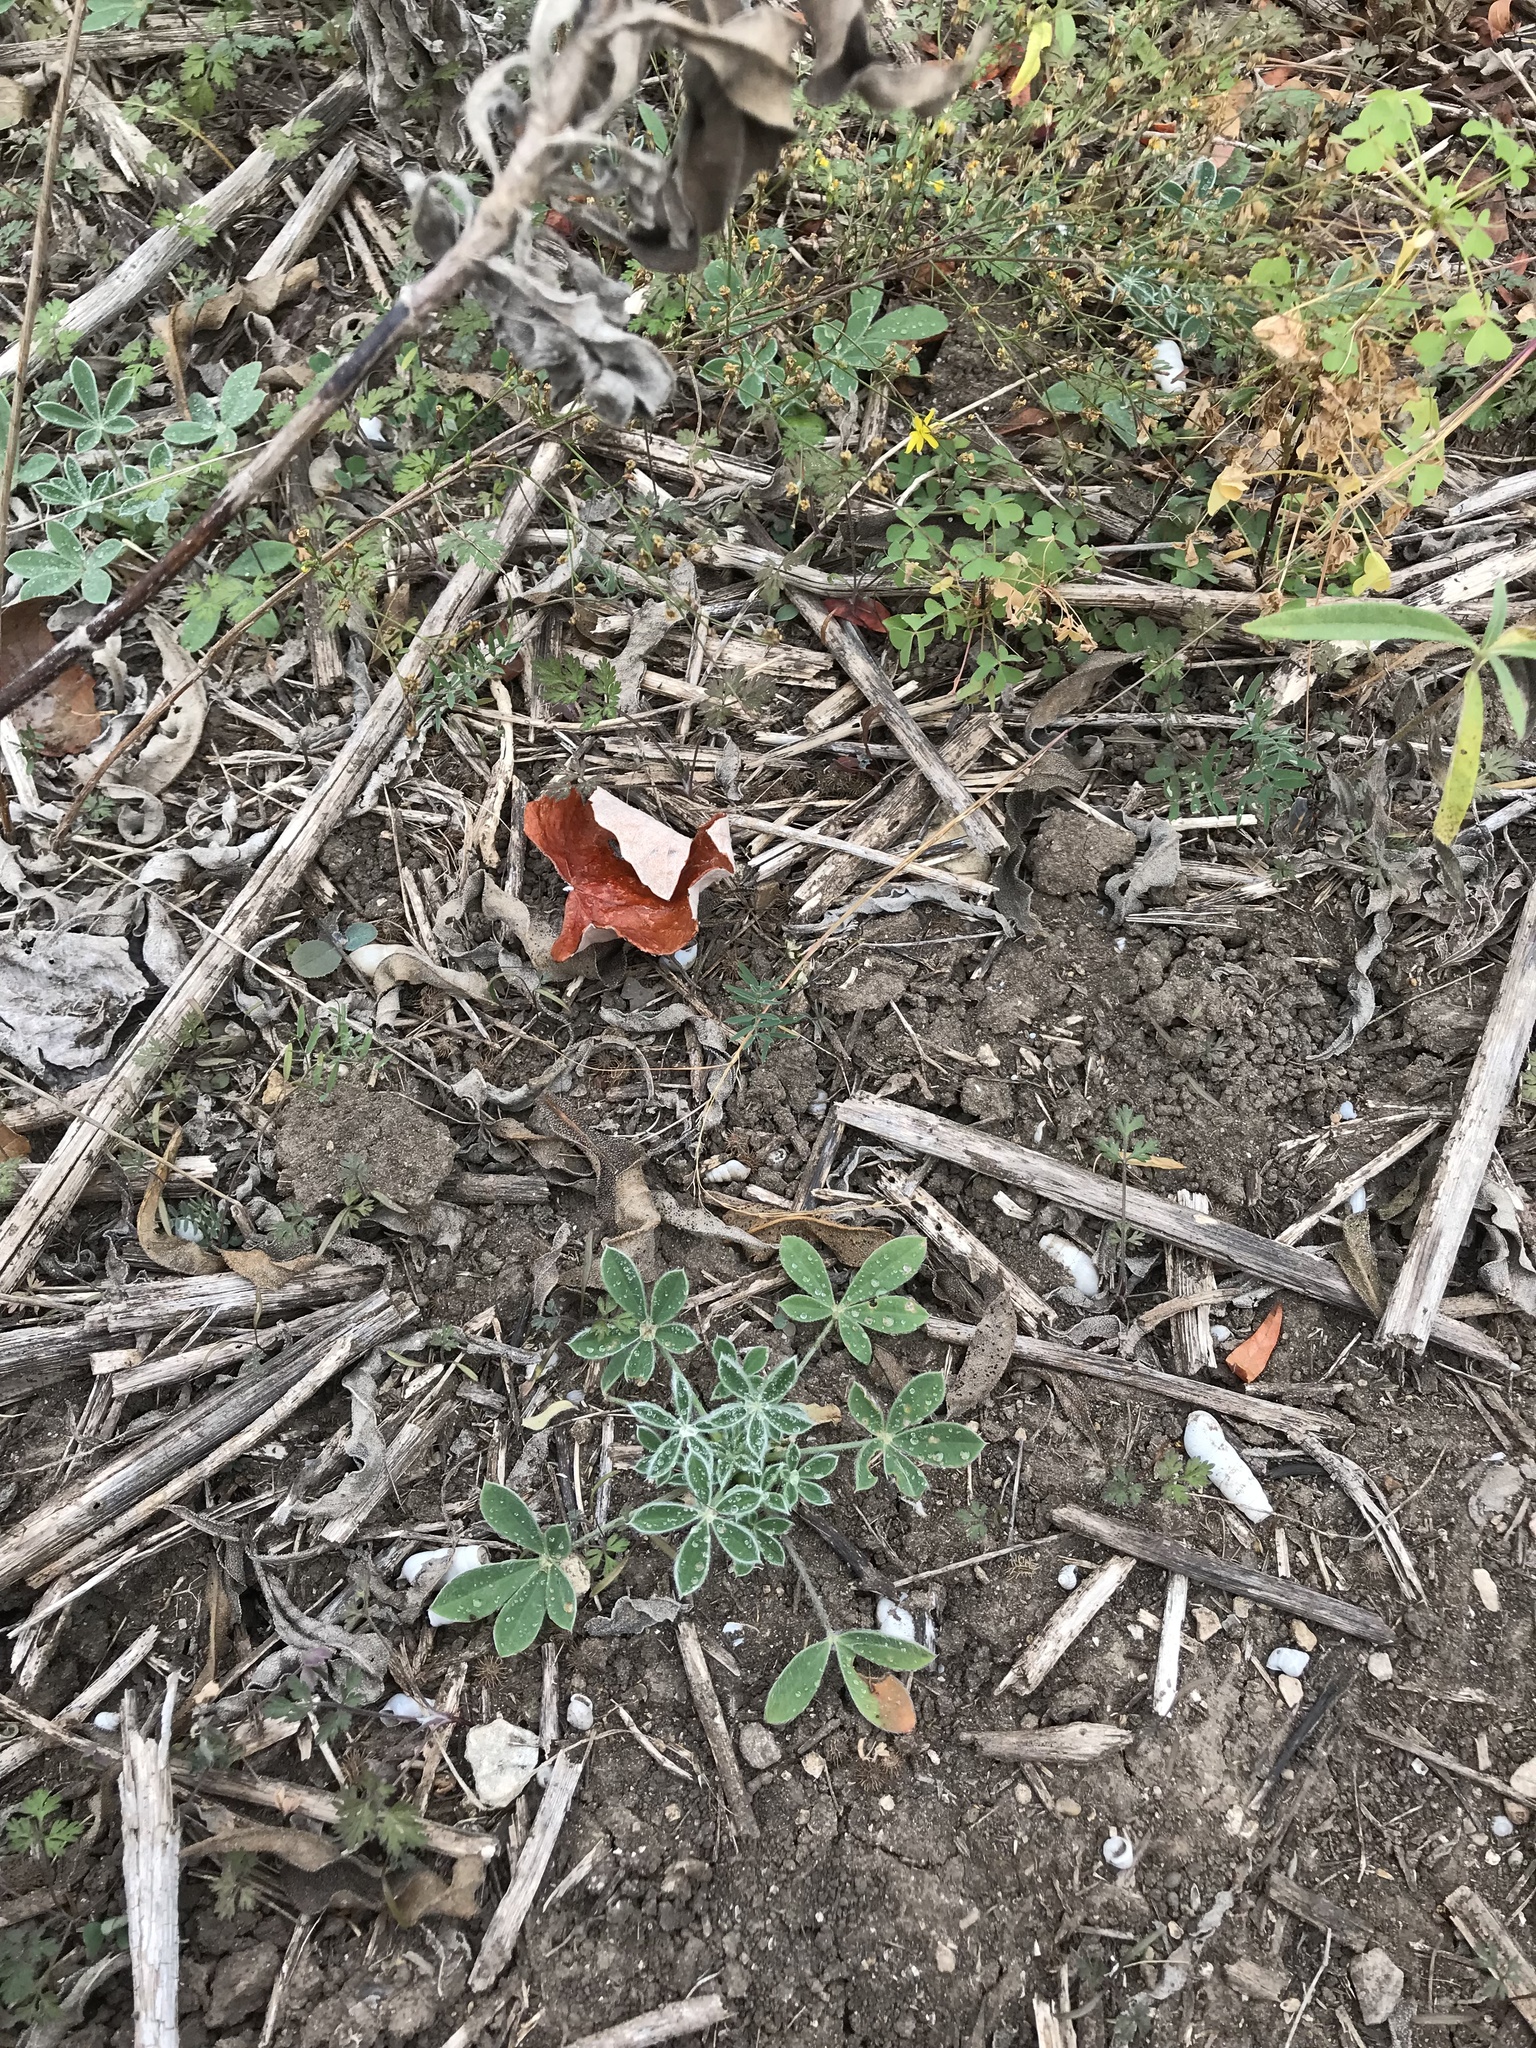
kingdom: Plantae
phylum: Tracheophyta
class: Magnoliopsida
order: Fabales
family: Fabaceae
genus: Lupinus
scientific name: Lupinus texensis
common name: Texas bluebonnet
